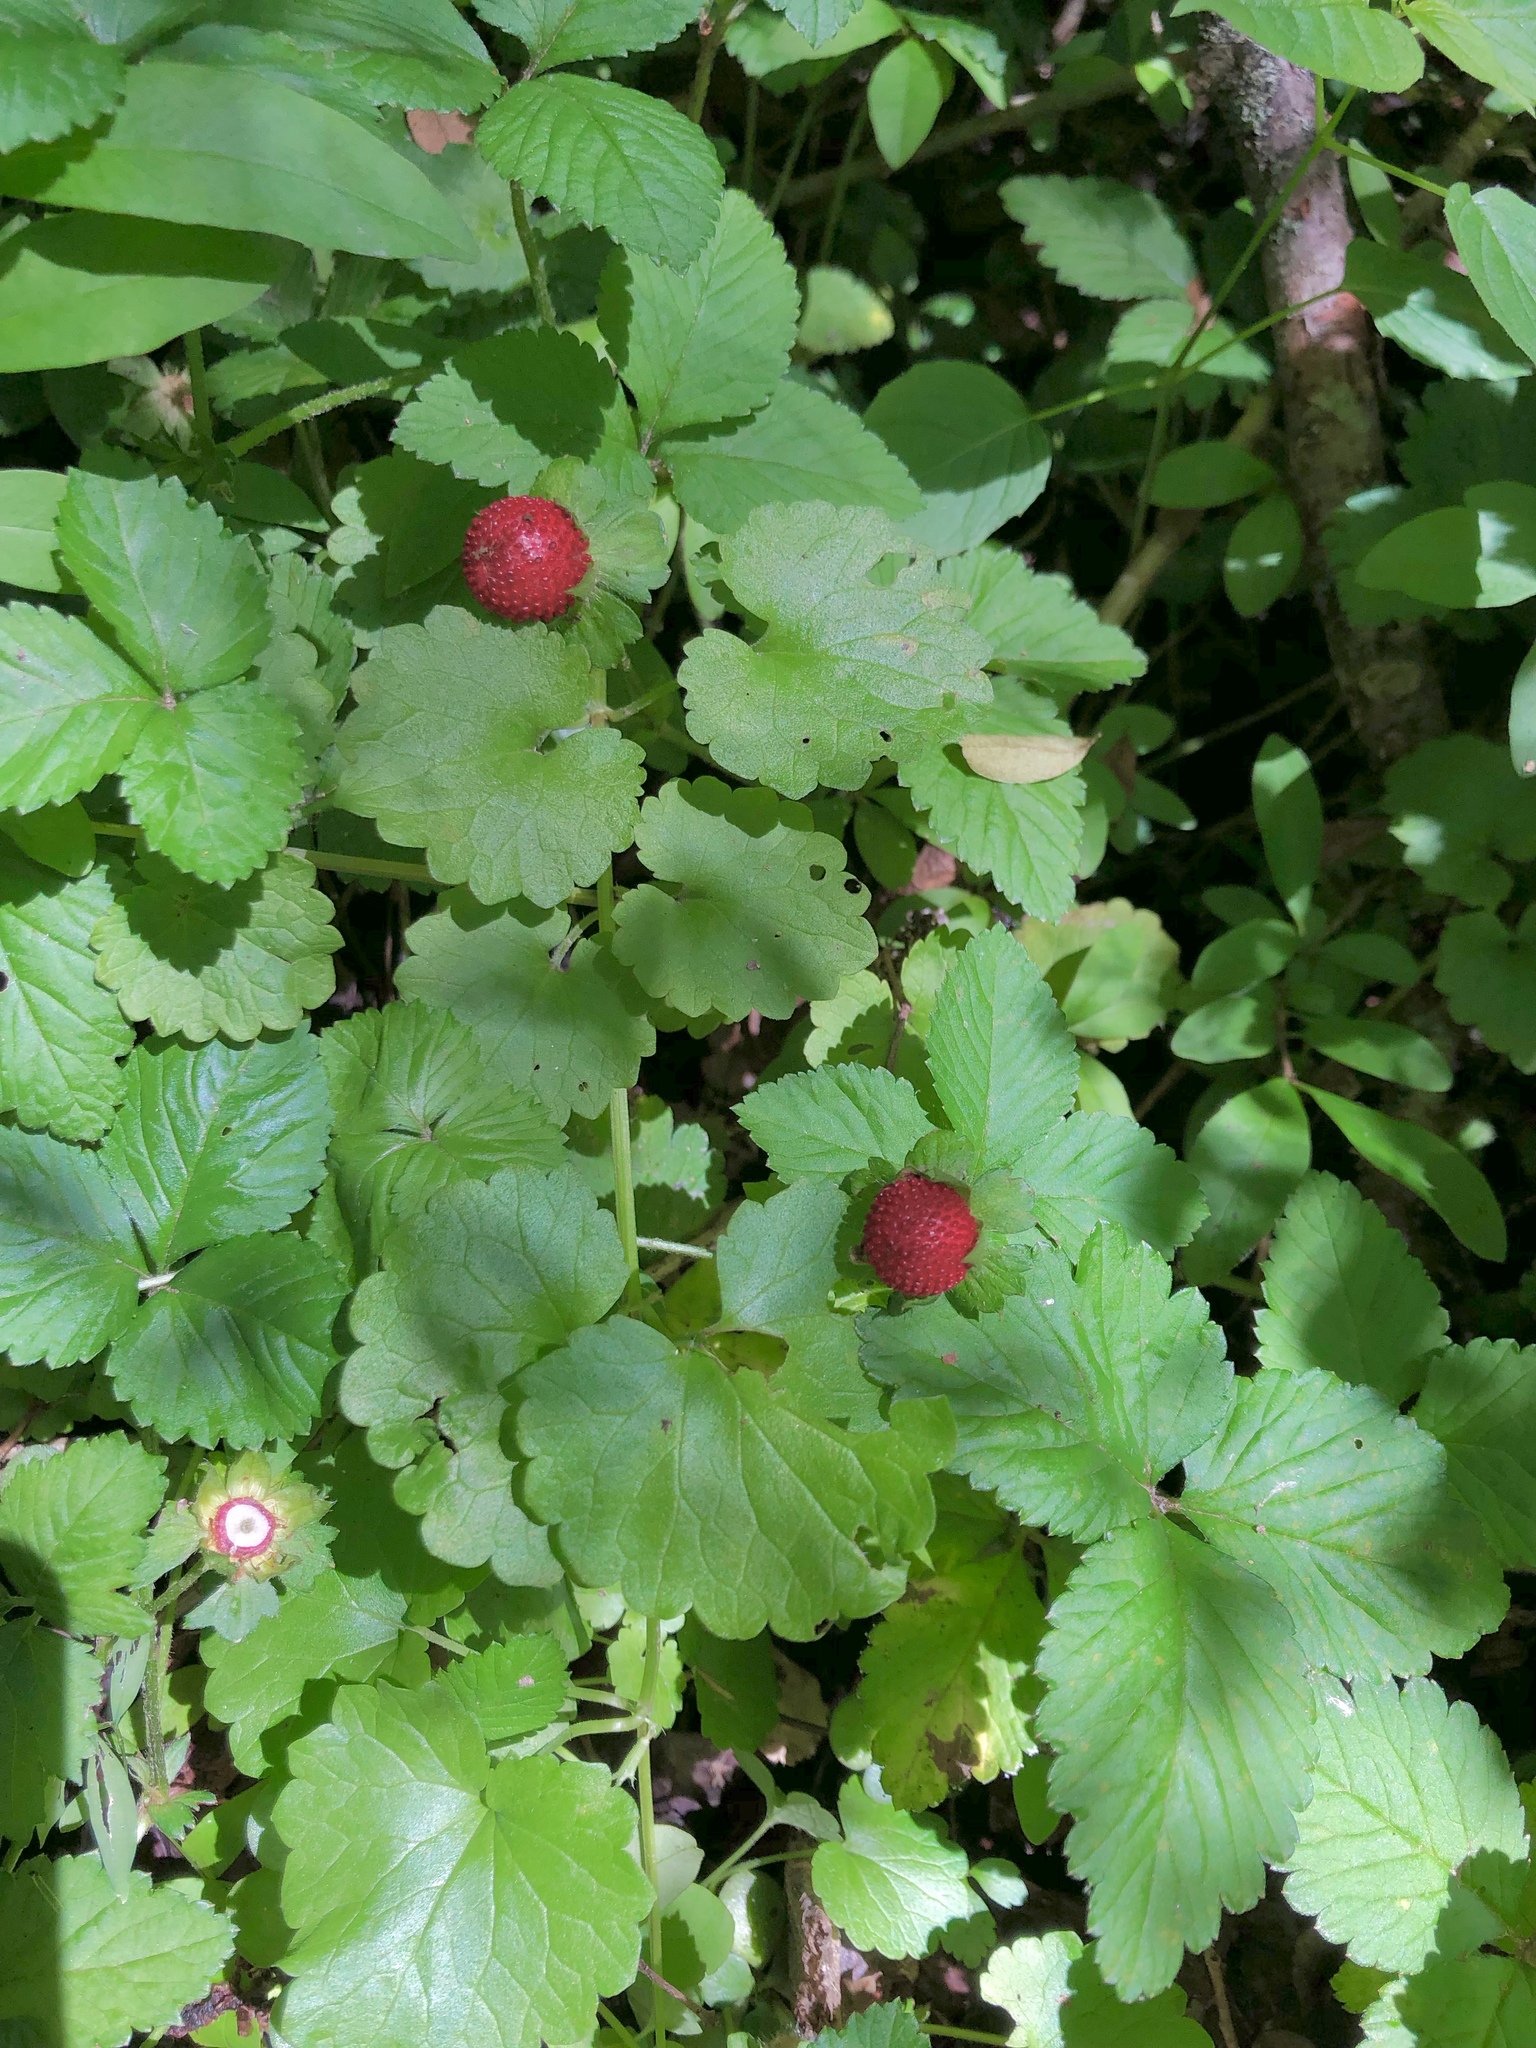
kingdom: Plantae
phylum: Tracheophyta
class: Magnoliopsida
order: Rosales
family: Rosaceae
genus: Potentilla
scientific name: Potentilla indica
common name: Yellow-flowered strawberry
